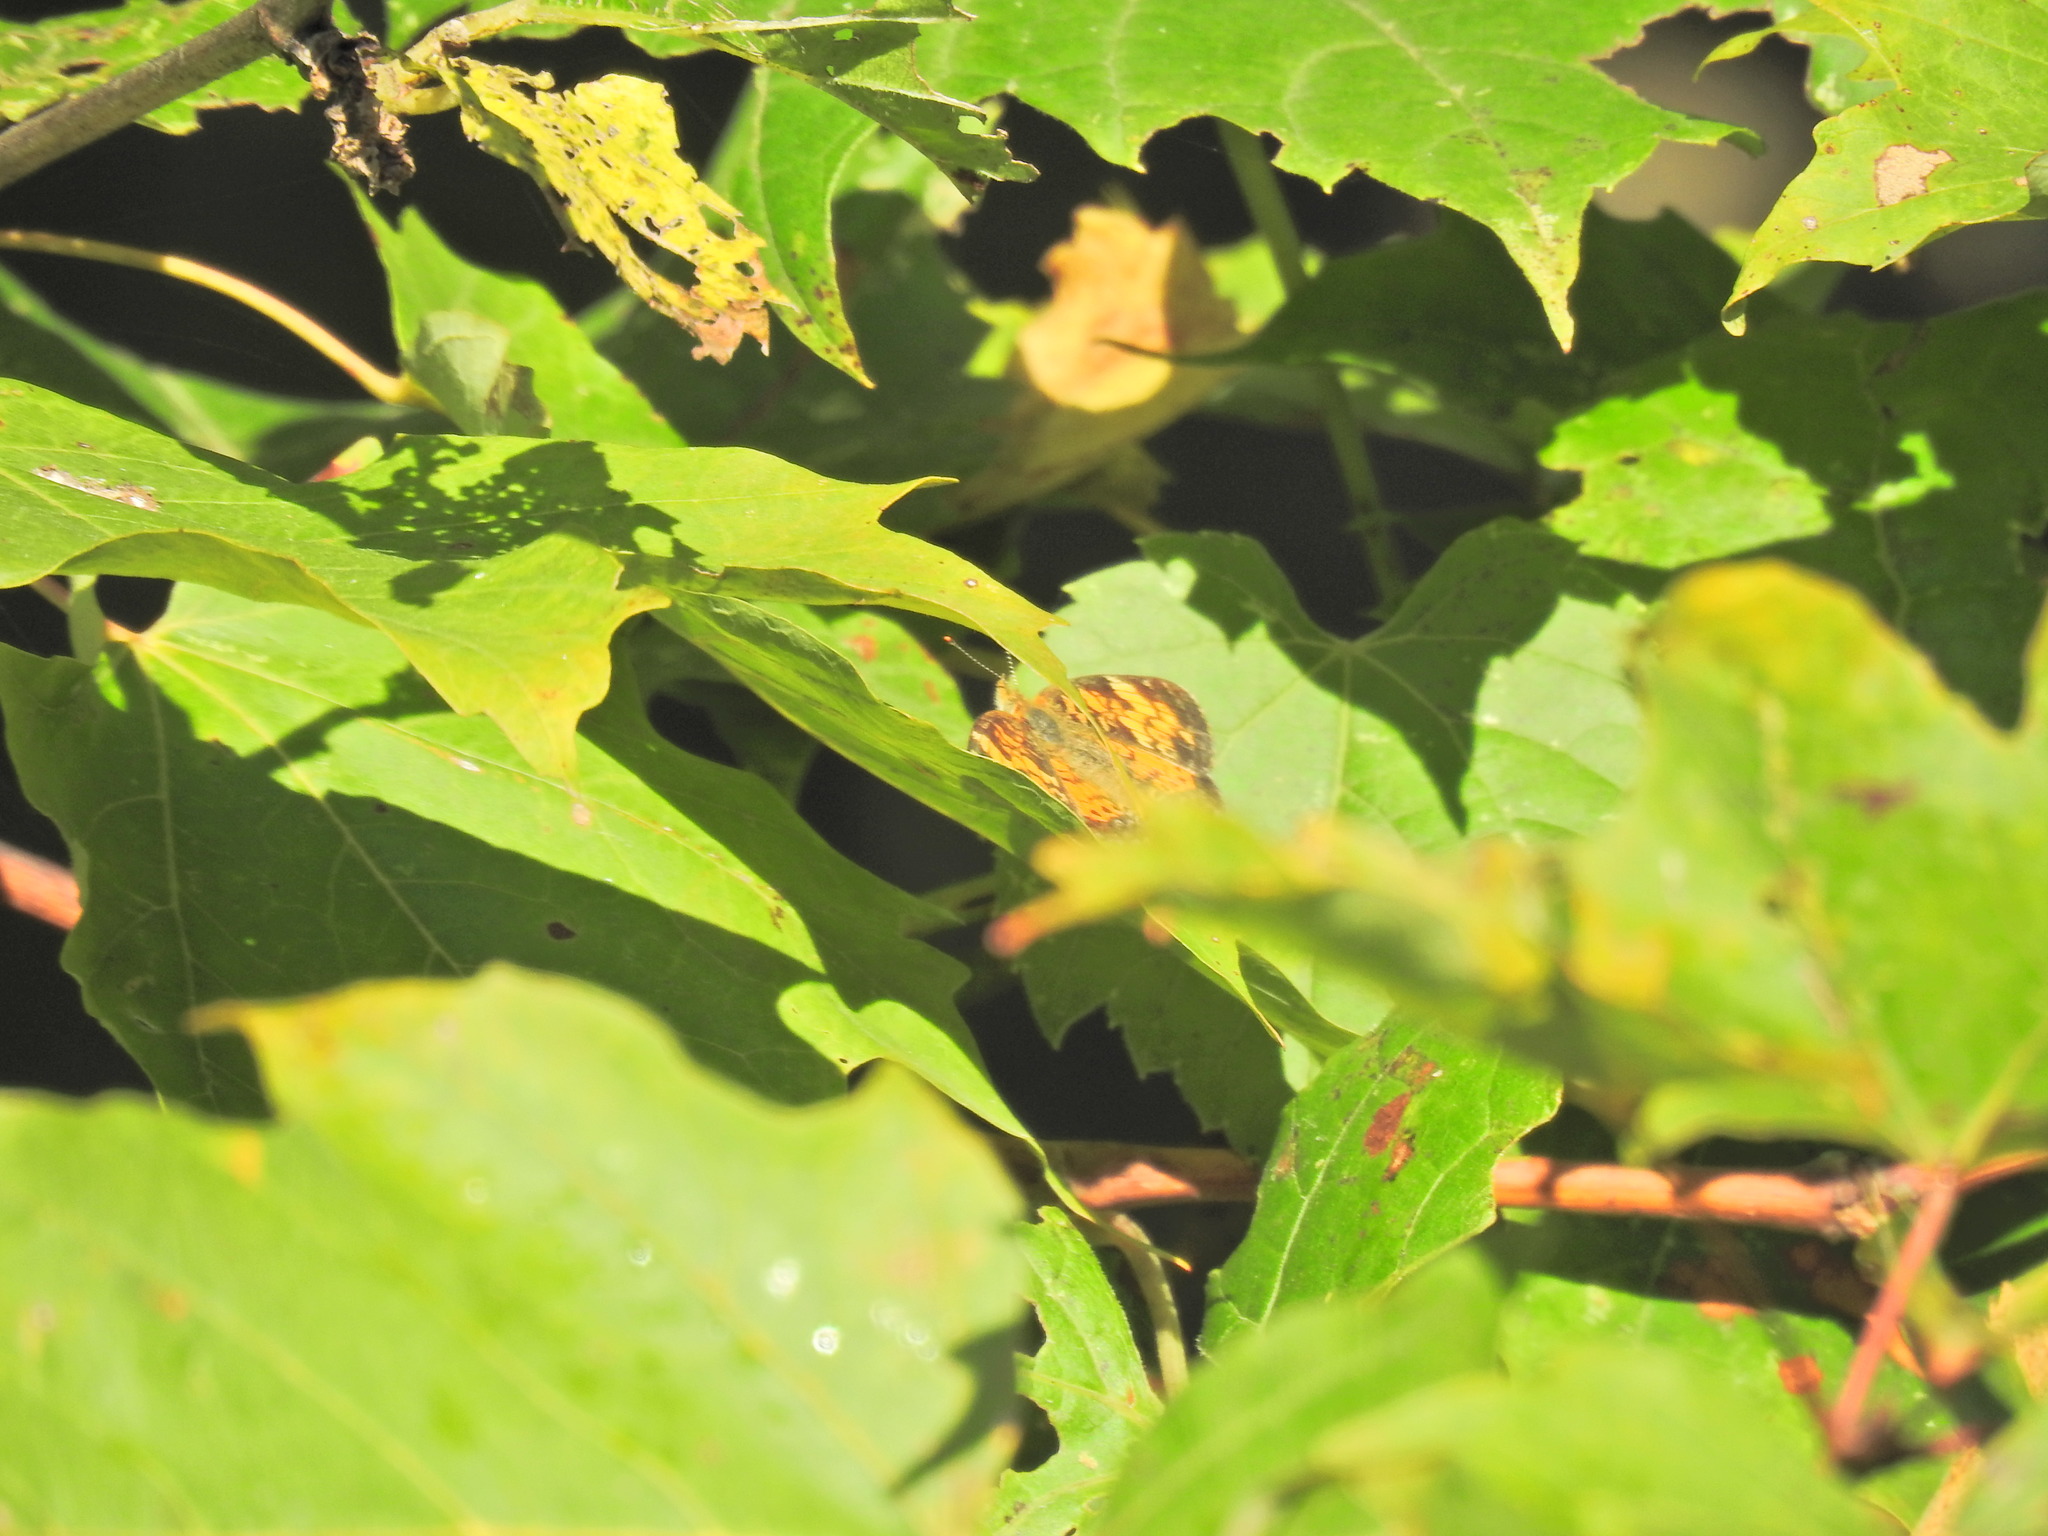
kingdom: Animalia
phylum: Arthropoda
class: Insecta
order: Lepidoptera
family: Nymphalidae
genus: Phyciodes
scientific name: Phyciodes tharos
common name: Pearl crescent
